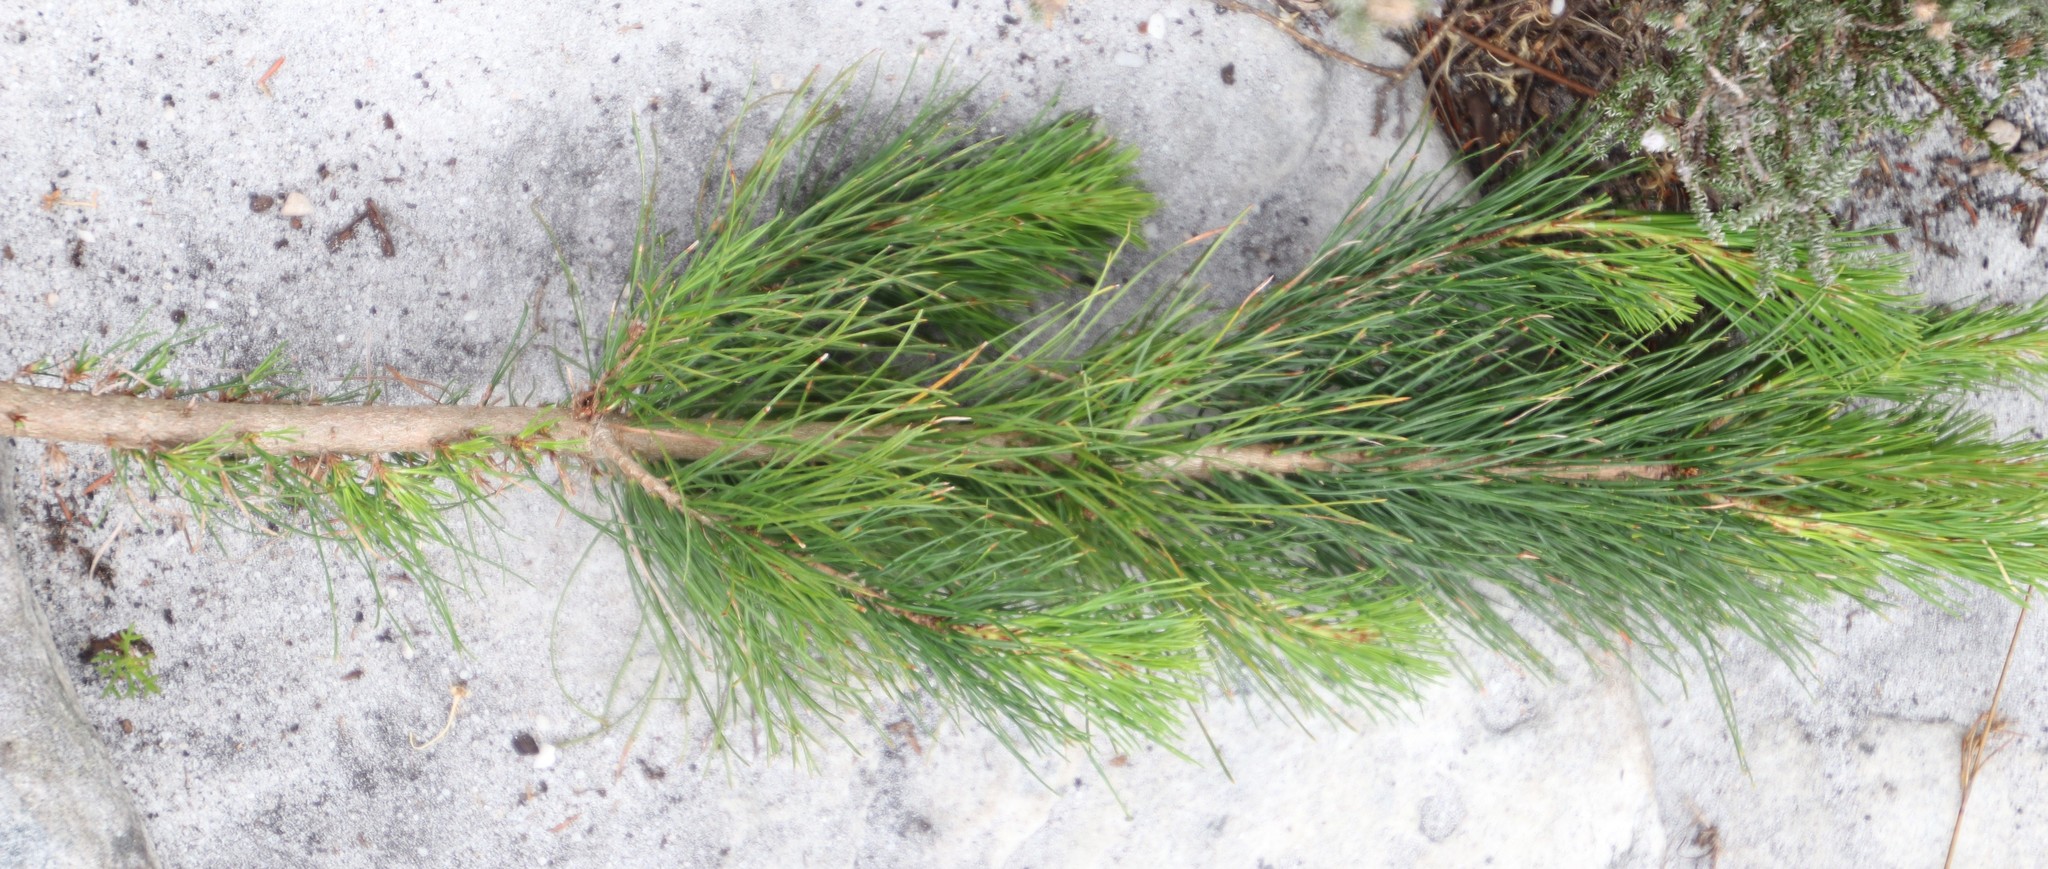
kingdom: Plantae
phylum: Tracheophyta
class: Pinopsida
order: Pinales
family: Pinaceae
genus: Pinus
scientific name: Pinus radiata
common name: Monterey pine
